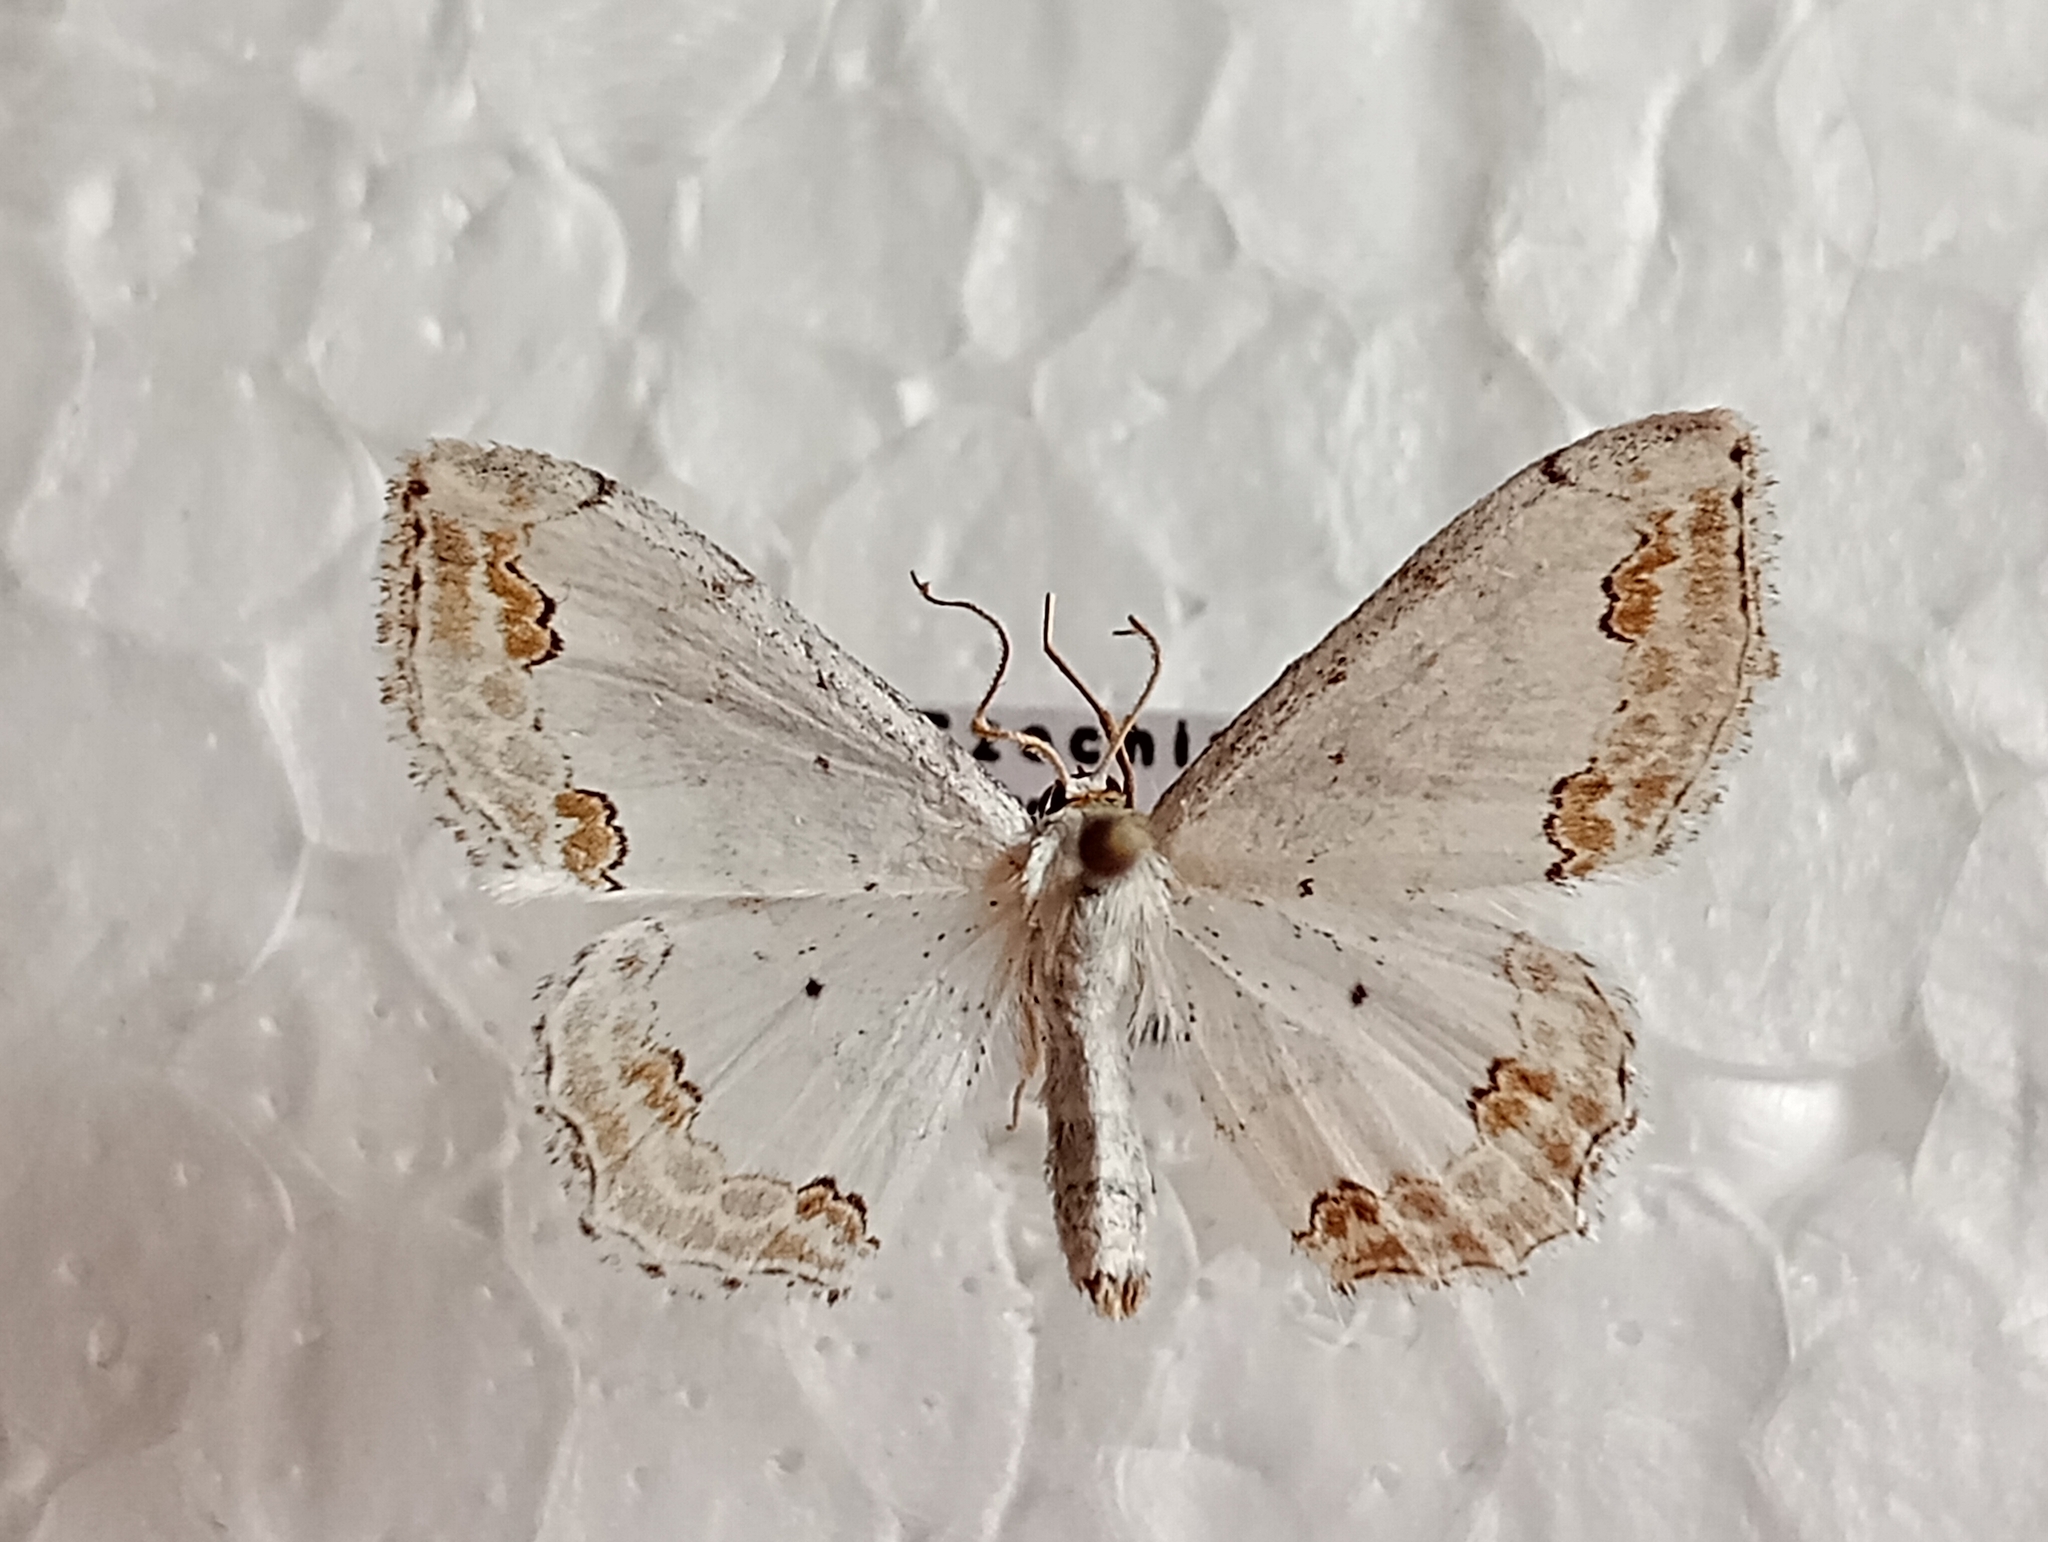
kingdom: Animalia
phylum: Arthropoda
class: Insecta
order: Lepidoptera
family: Geometridae
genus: Scopula
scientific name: Scopula ornata
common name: Lace border
